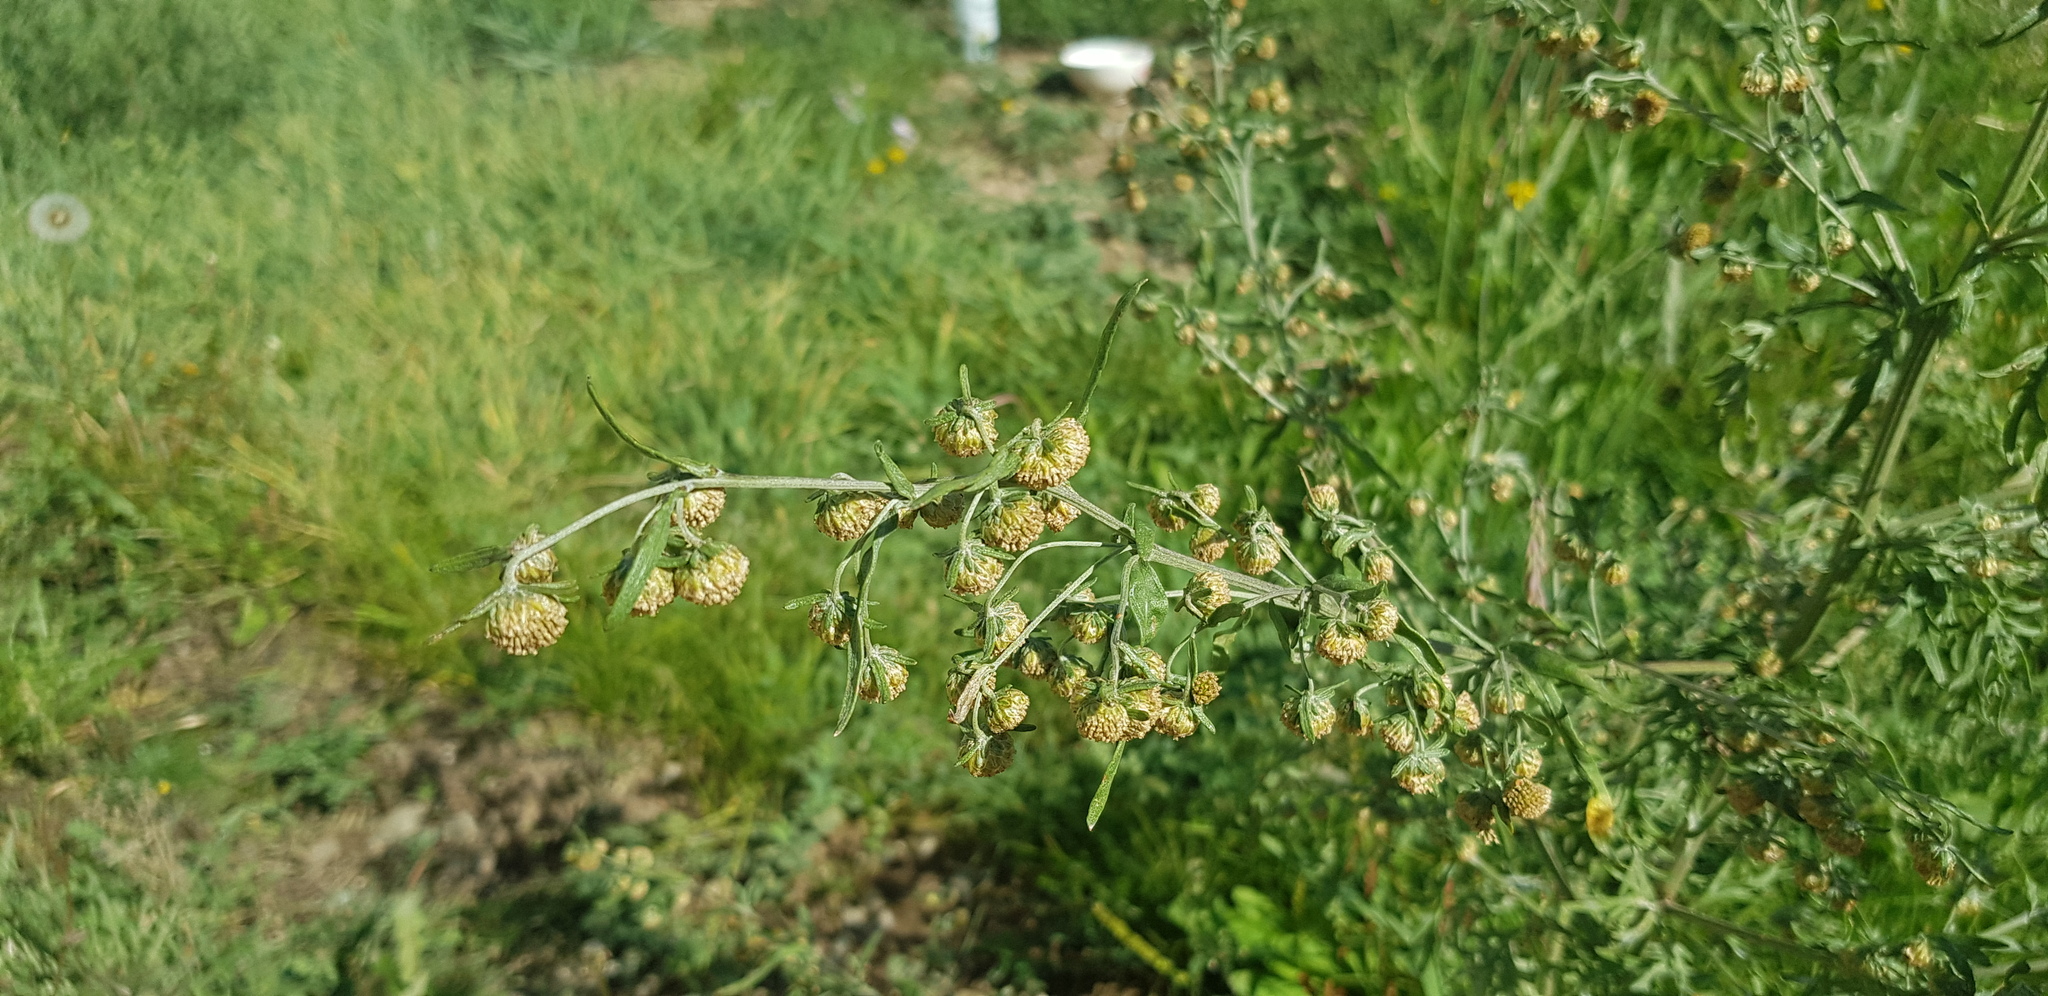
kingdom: Plantae
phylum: Tracheophyta
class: Magnoliopsida
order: Asterales
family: Asteraceae
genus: Artemisia
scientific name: Artemisia sieversiana
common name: Sieversian wormwood
